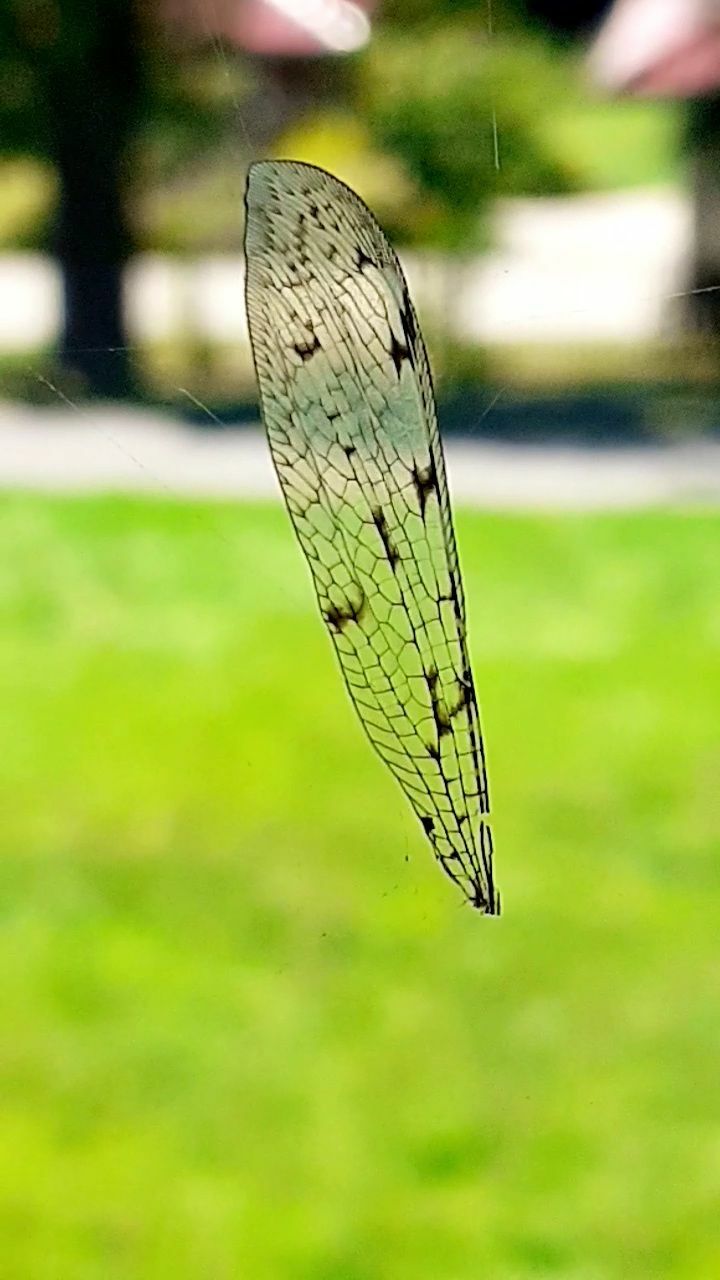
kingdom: Animalia
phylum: Arthropoda
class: Insecta
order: Neuroptera
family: Myrmeleontidae
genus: Euroleon
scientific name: Euroleon nostras
